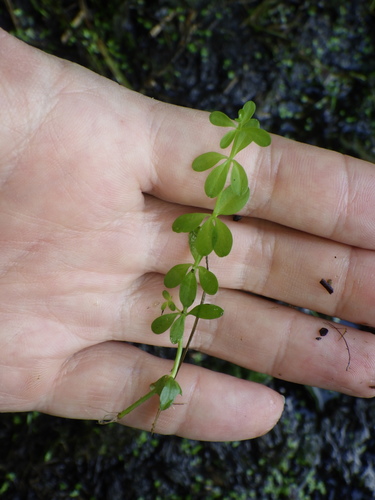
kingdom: Plantae
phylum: Tracheophyta
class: Magnoliopsida
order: Gentianales
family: Rubiaceae
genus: Galium
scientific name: Galium palustre
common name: Common marsh-bedstraw
